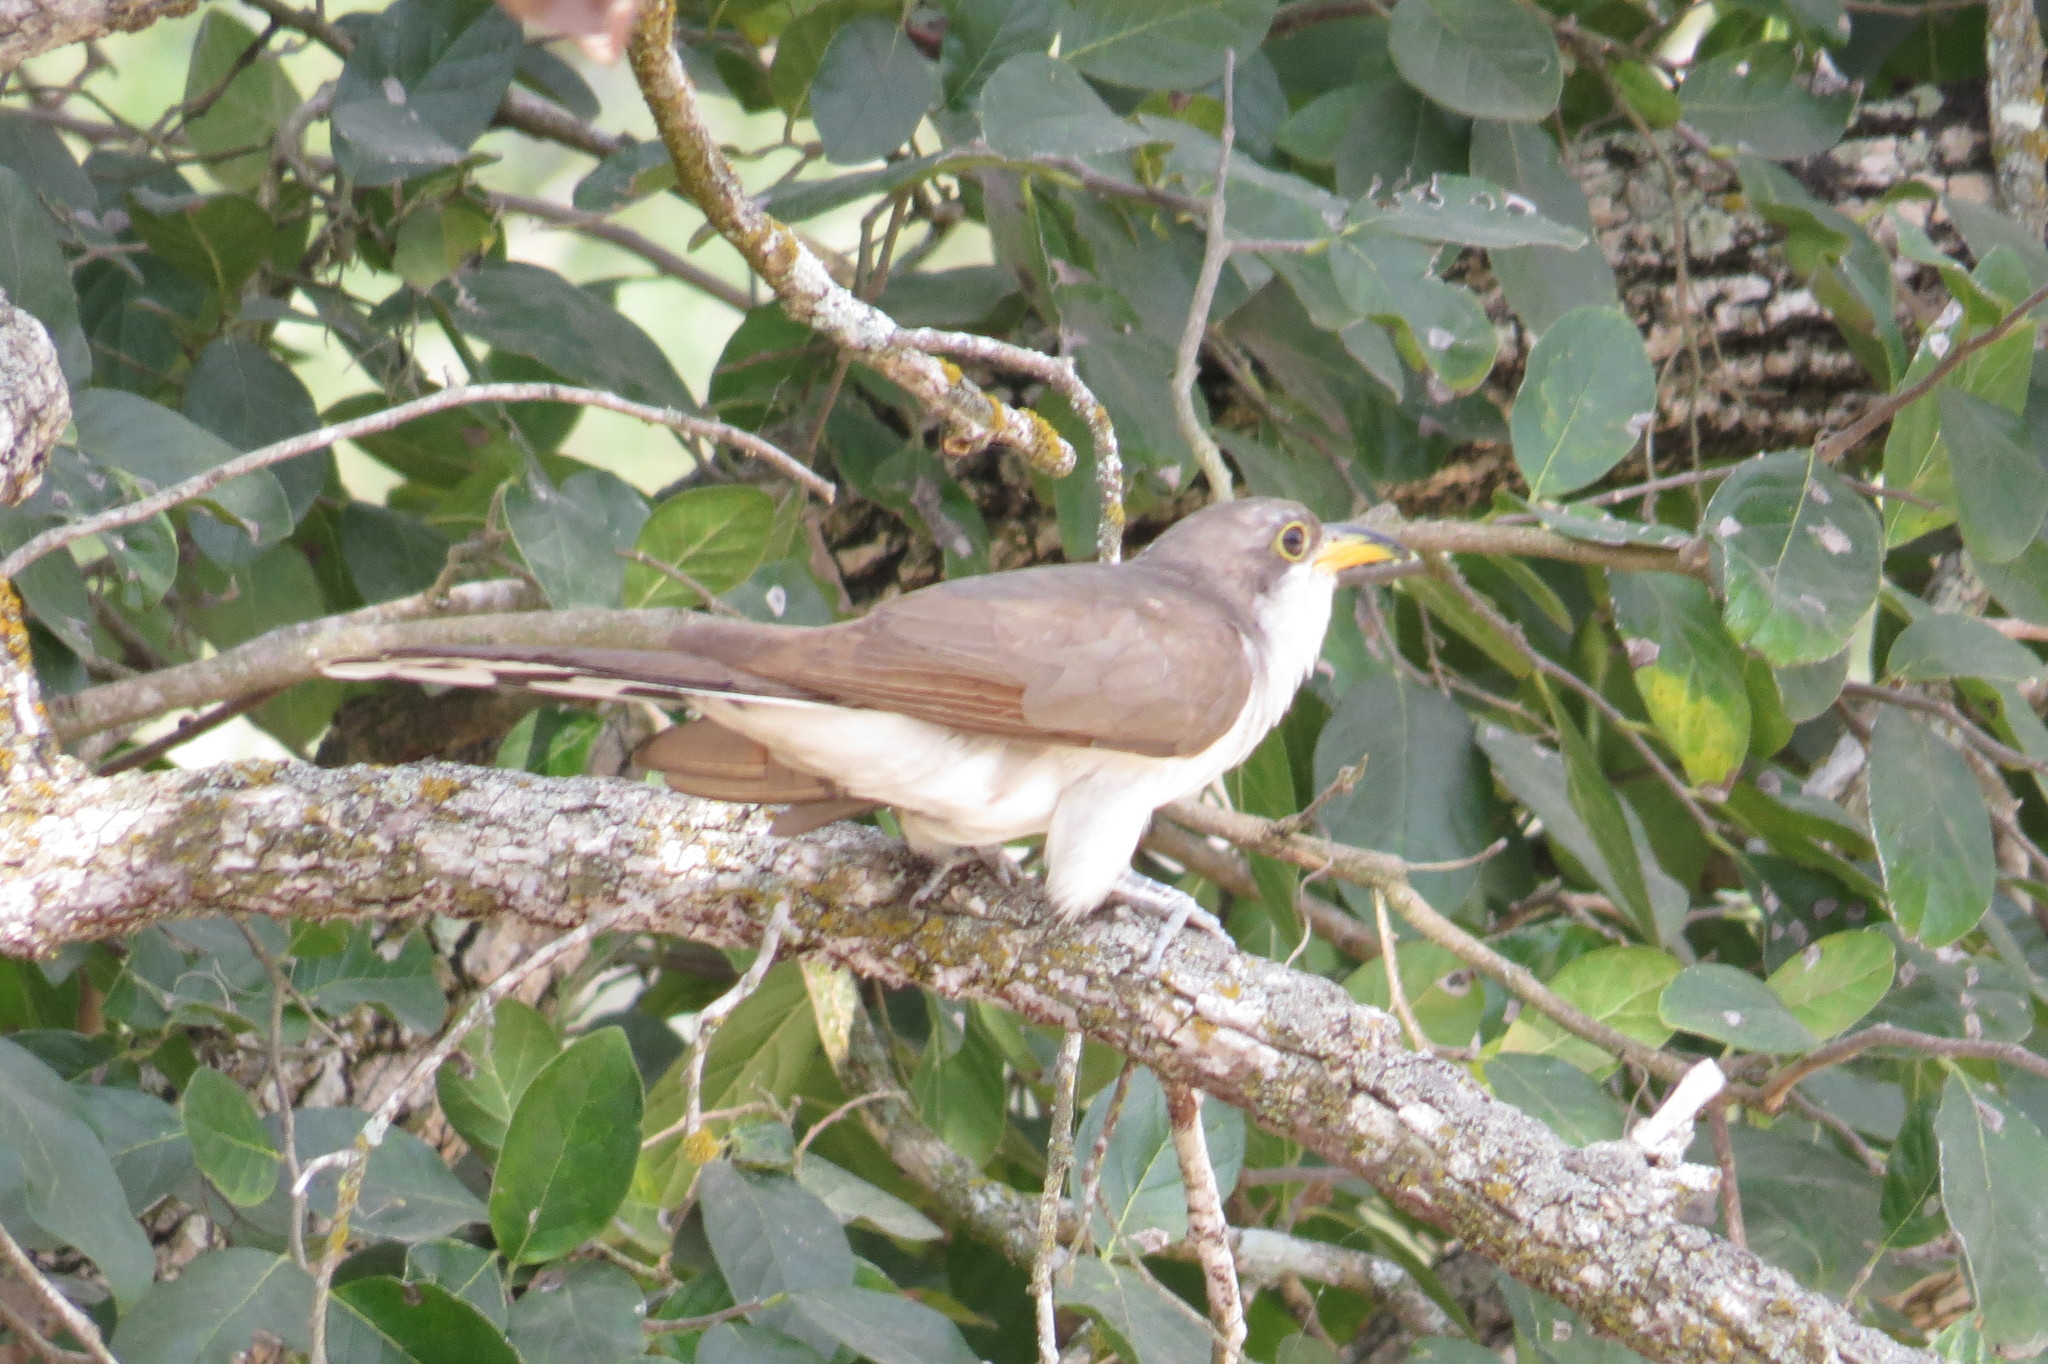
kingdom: Animalia
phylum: Chordata
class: Aves
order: Cuculiformes
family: Cuculidae
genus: Coccyzus
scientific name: Coccyzus americanus
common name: Yellow-billed cuckoo
